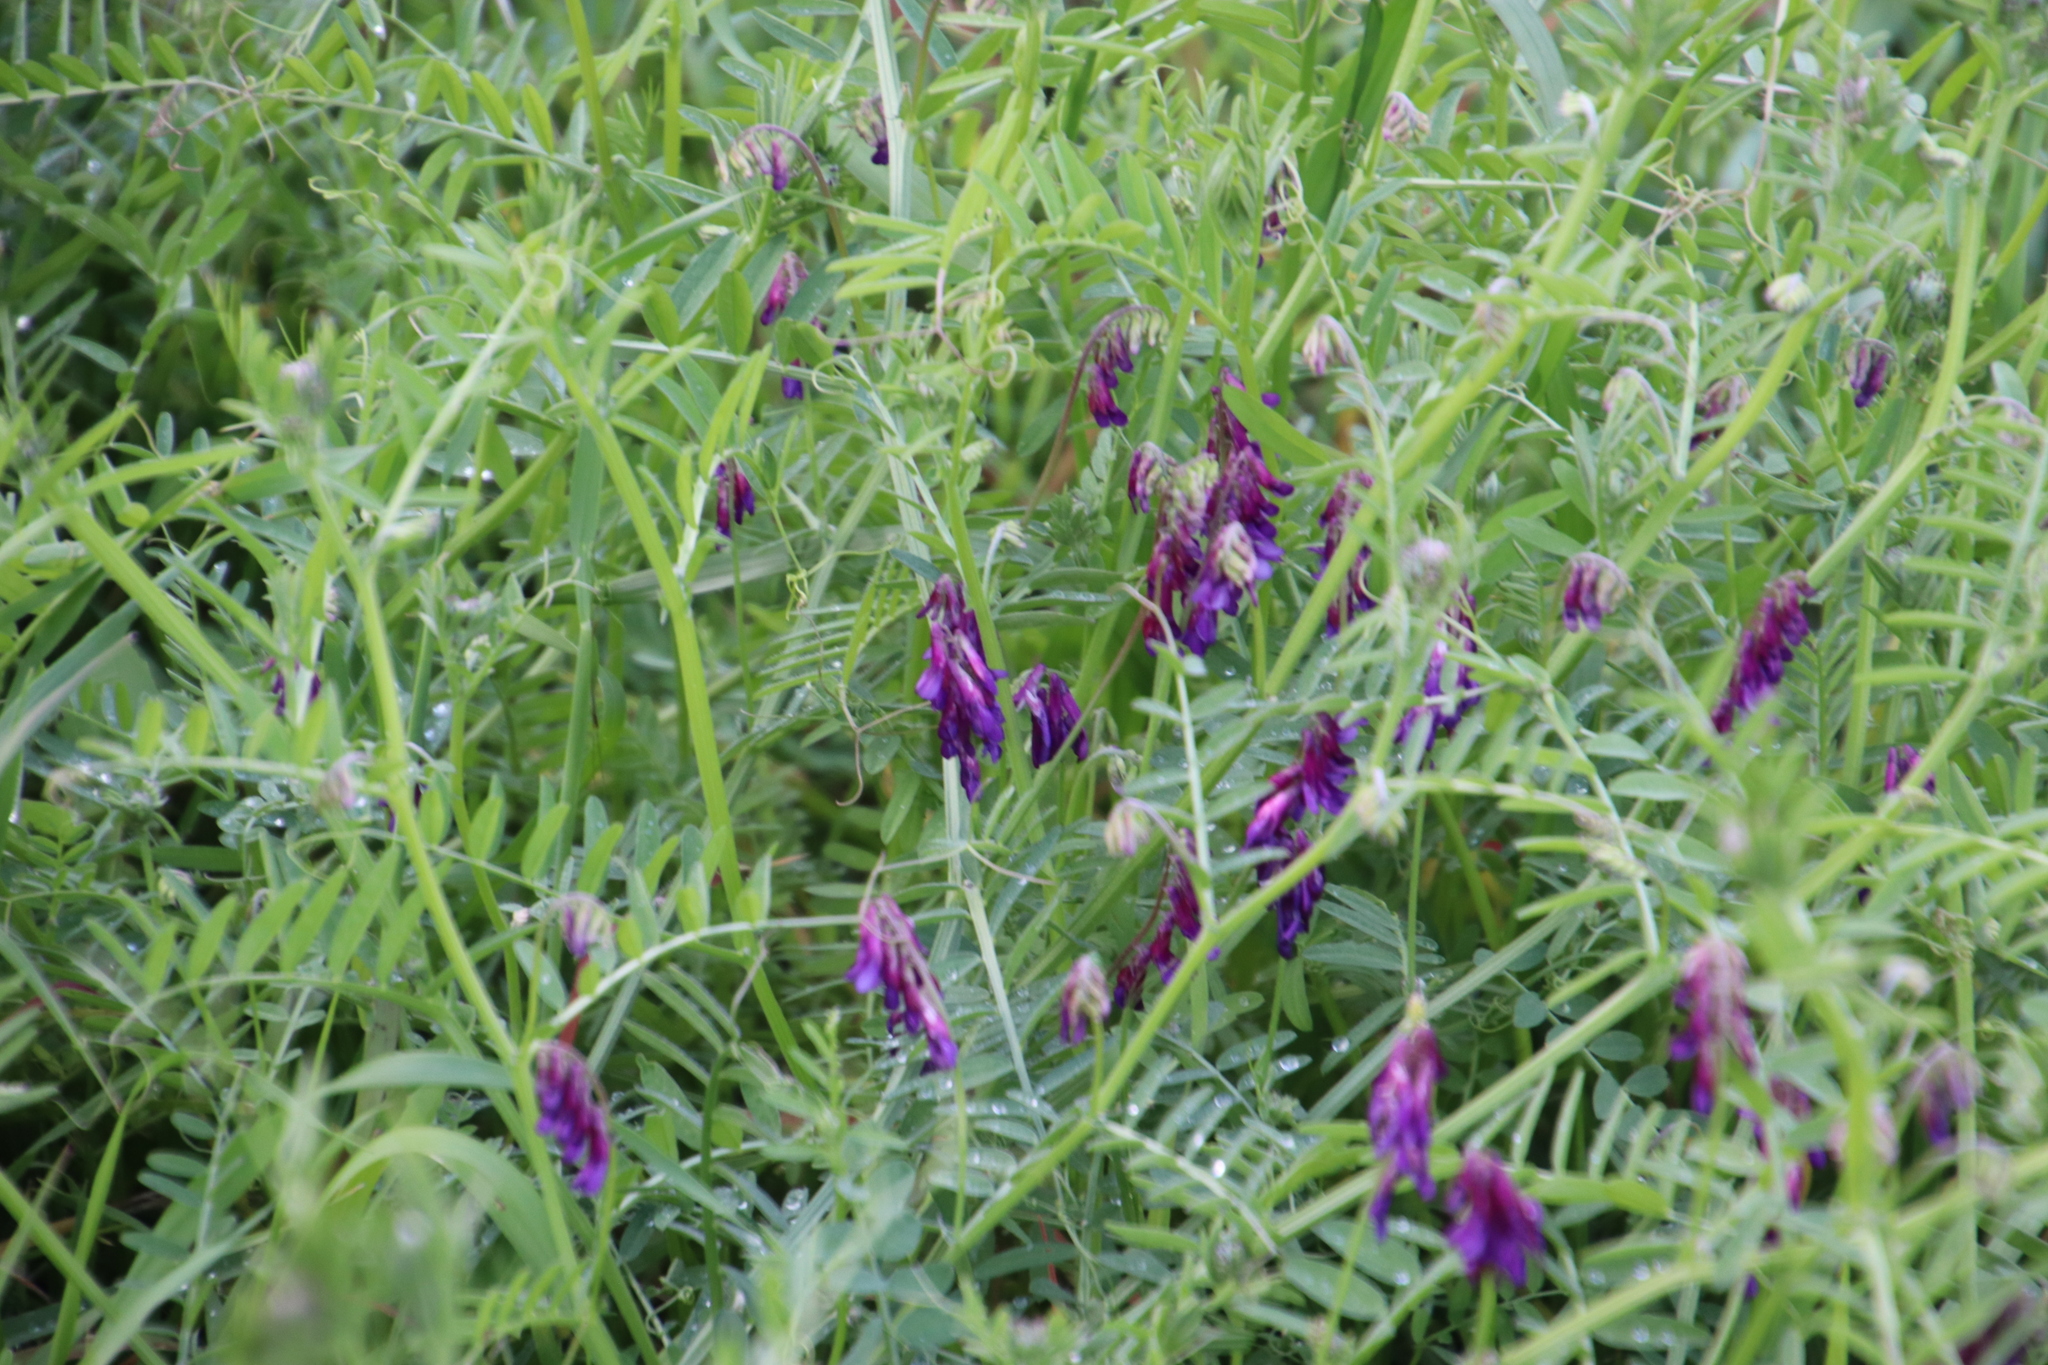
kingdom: Plantae
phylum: Tracheophyta
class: Magnoliopsida
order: Fabales
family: Fabaceae
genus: Vicia
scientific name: Vicia eriocarpa
